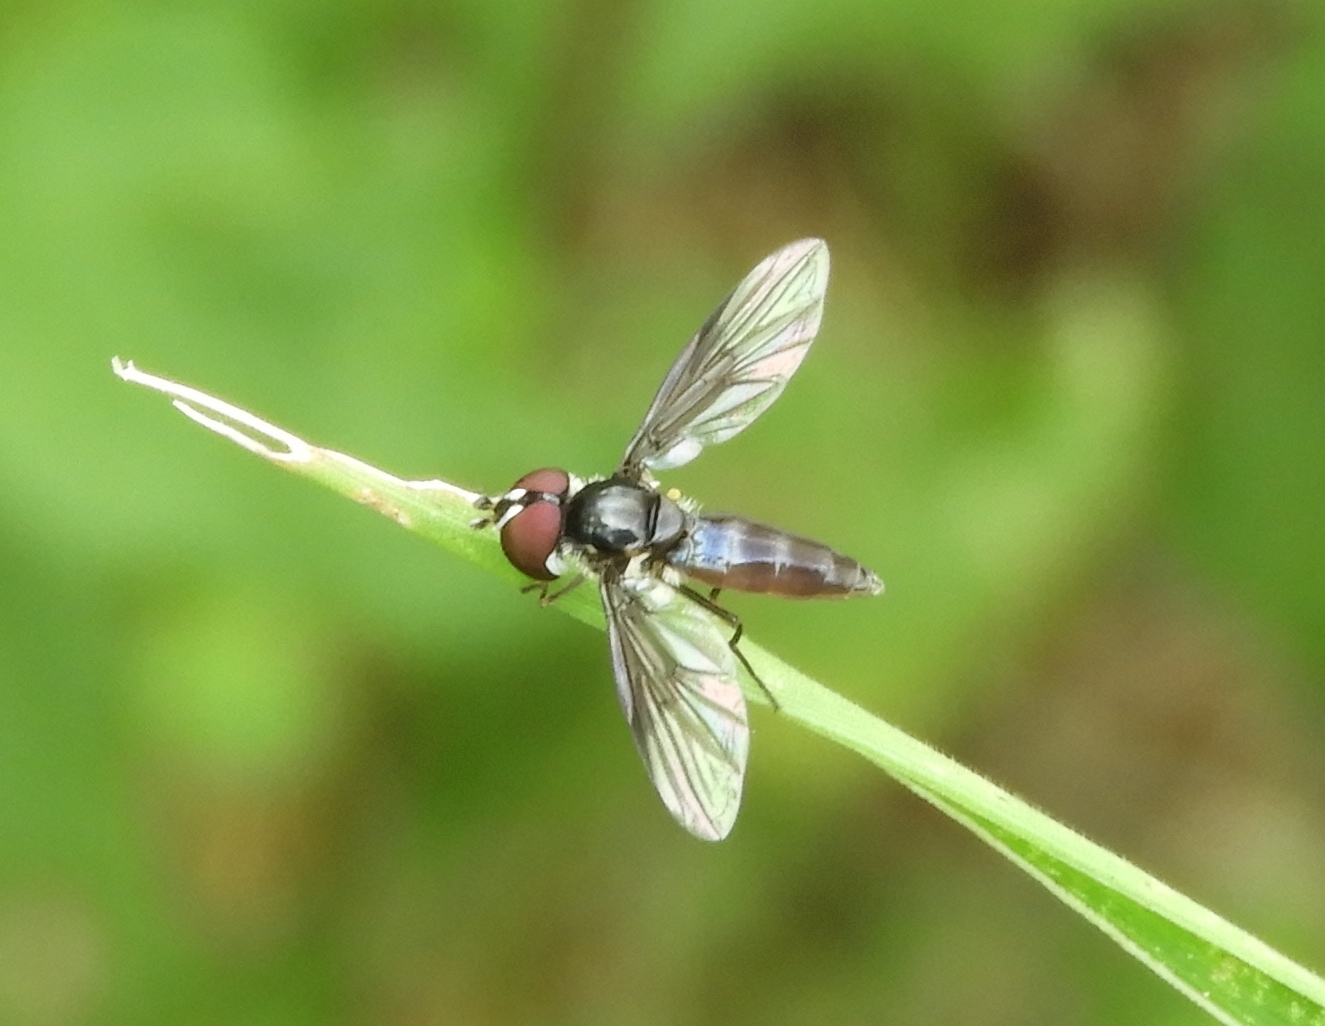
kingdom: Animalia
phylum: Arthropoda
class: Insecta
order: Diptera
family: Syrphidae
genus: Ocyptamus
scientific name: Ocyptamus
